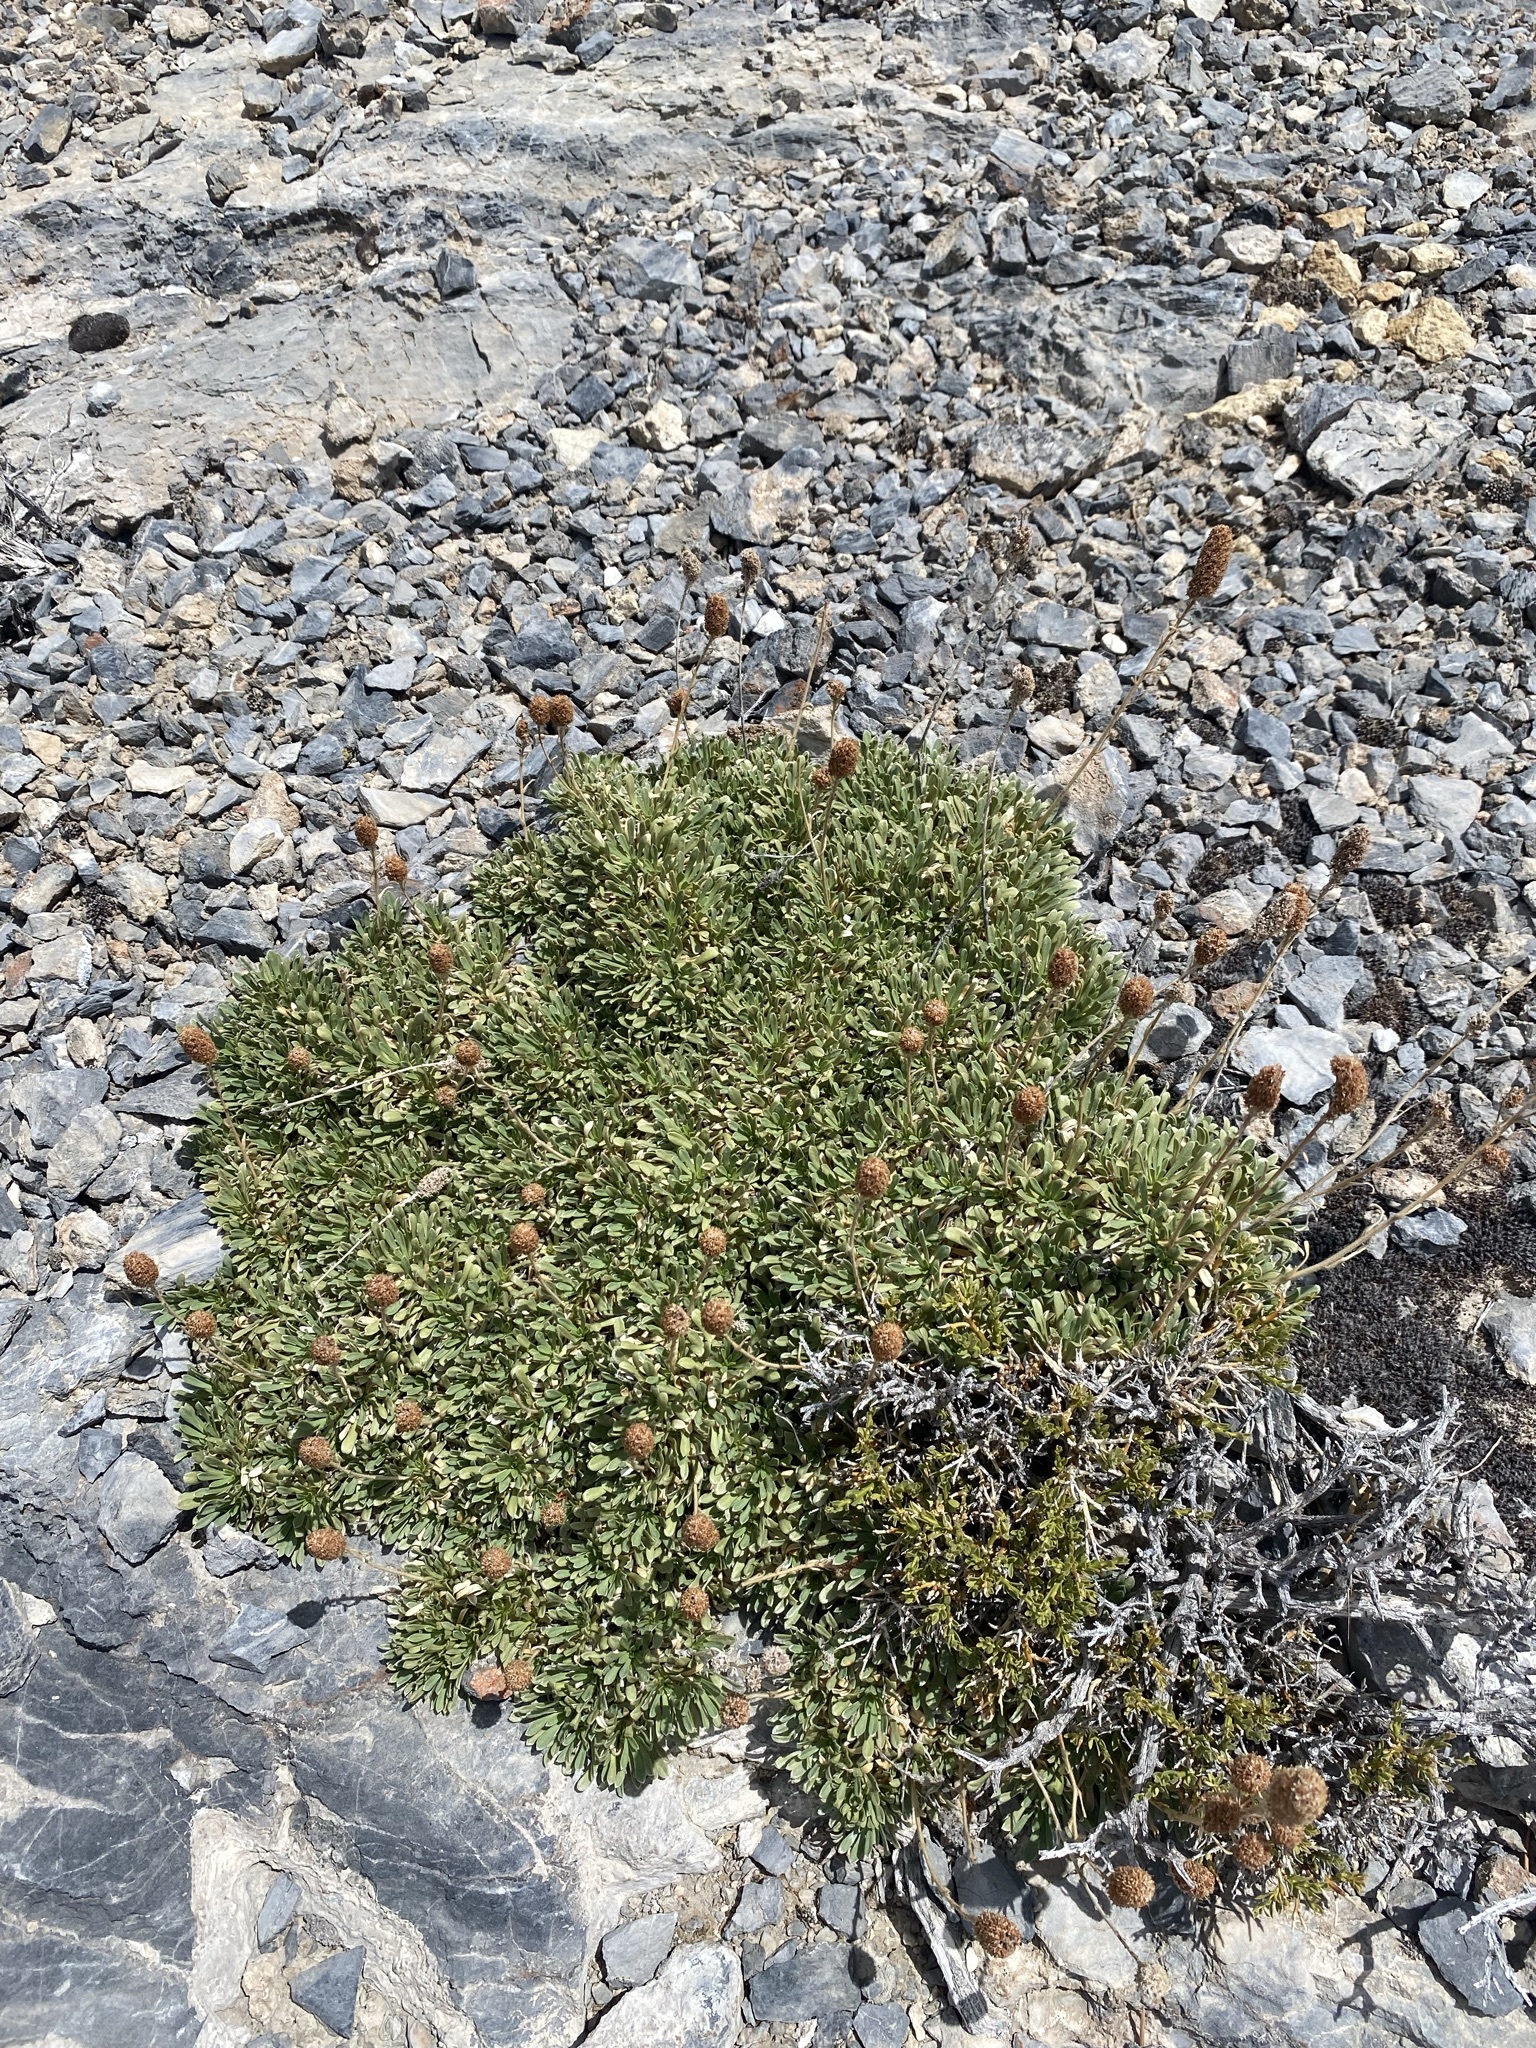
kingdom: Plantae
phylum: Tracheophyta
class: Magnoliopsida
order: Rosales
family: Rosaceae
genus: Petrophytum
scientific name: Petrophytum caespitosum
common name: Mat rockspirea
